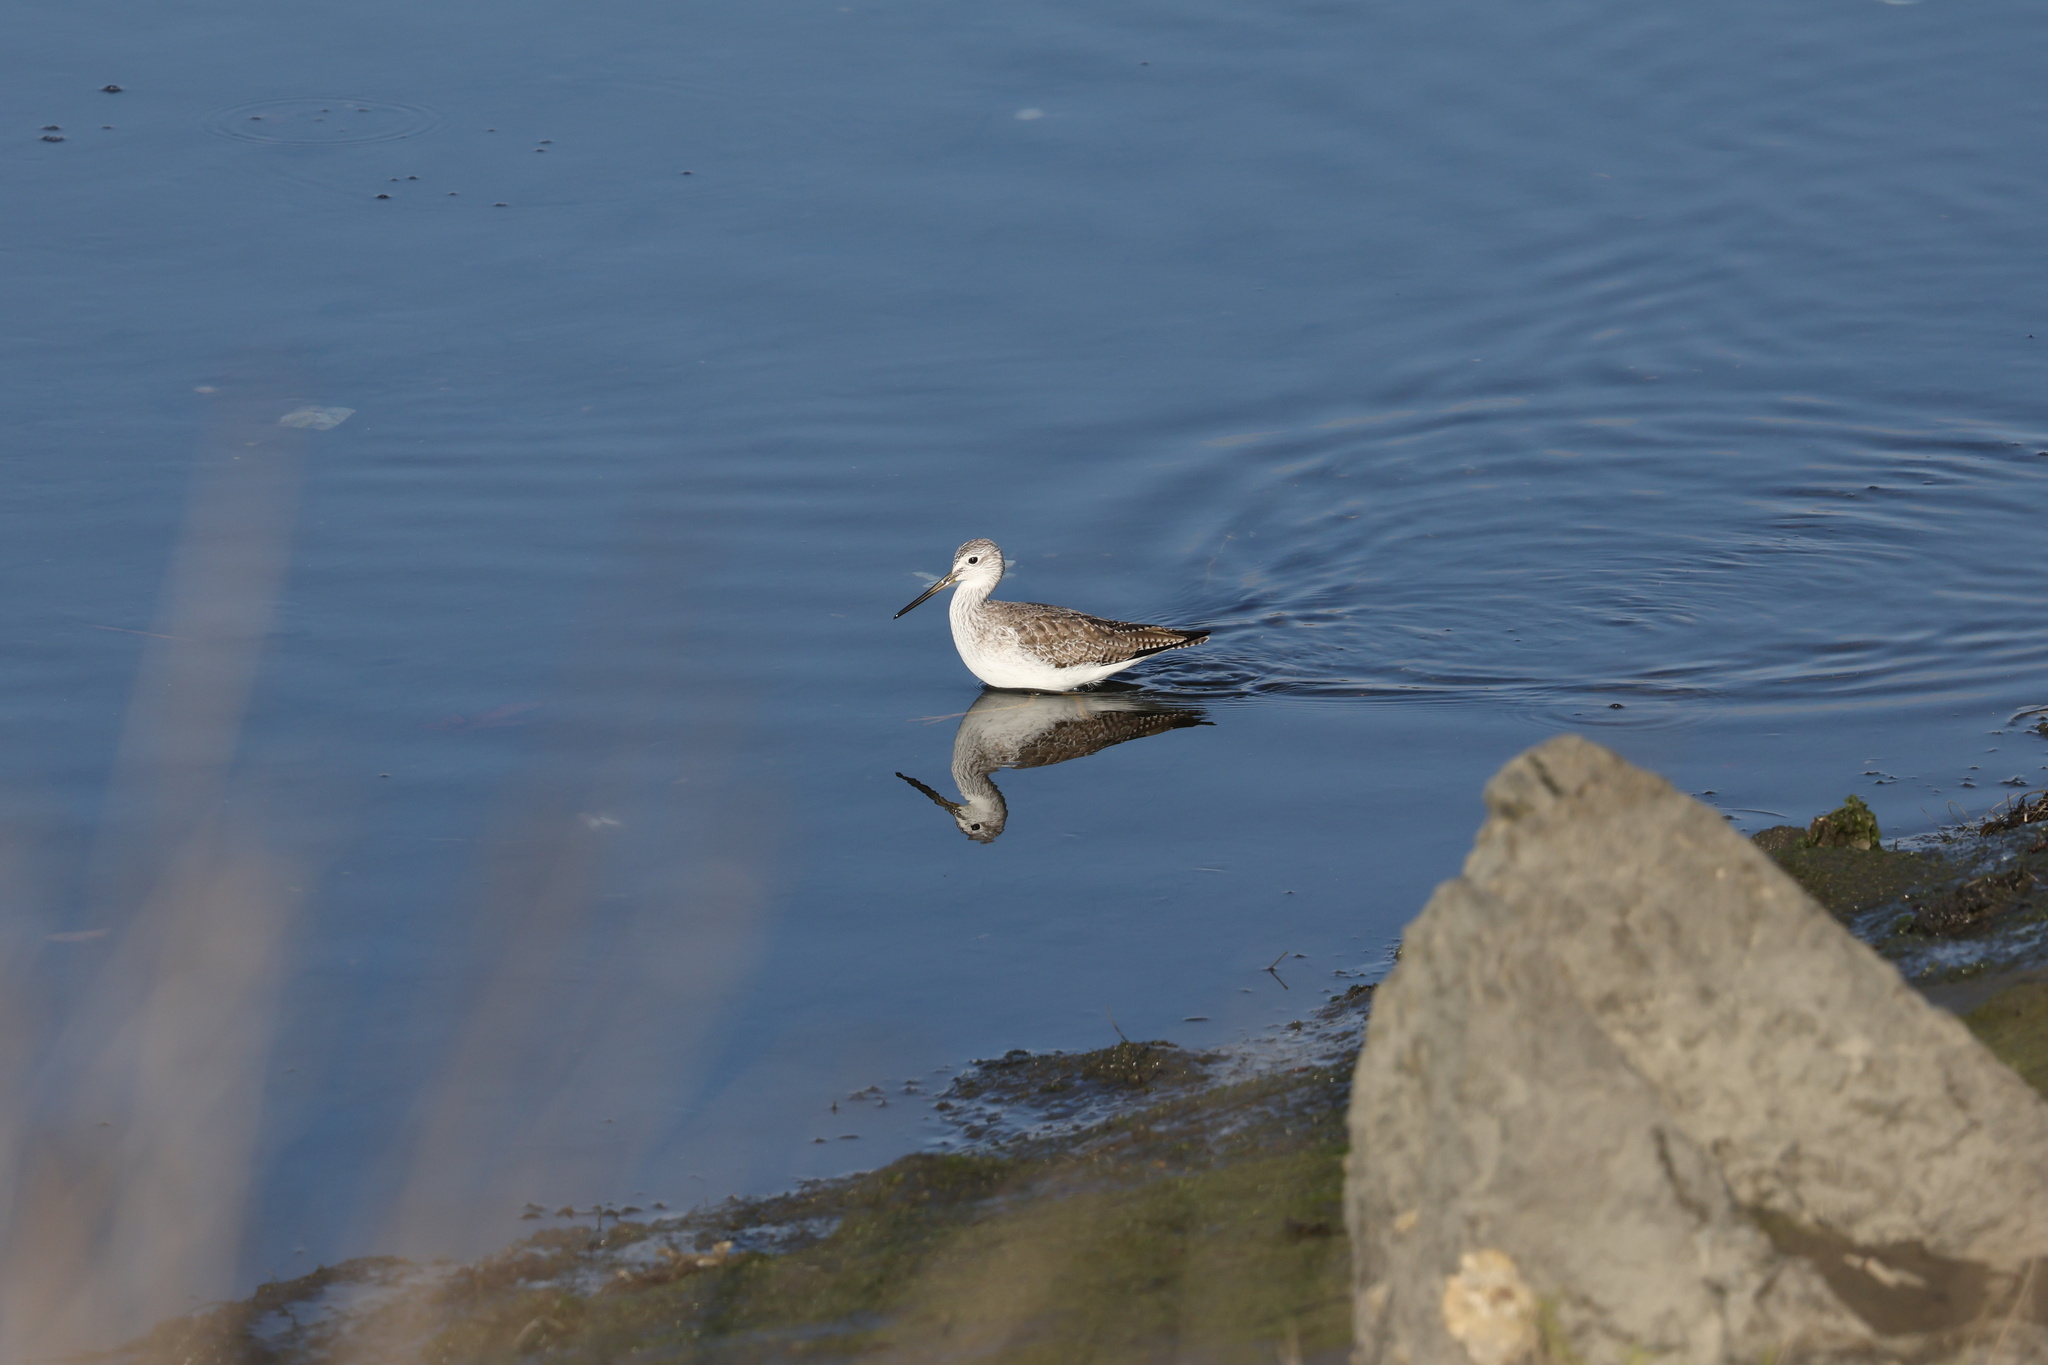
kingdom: Animalia
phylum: Chordata
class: Aves
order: Charadriiformes
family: Scolopacidae
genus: Tringa
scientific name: Tringa melanoleuca
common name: Greater yellowlegs
